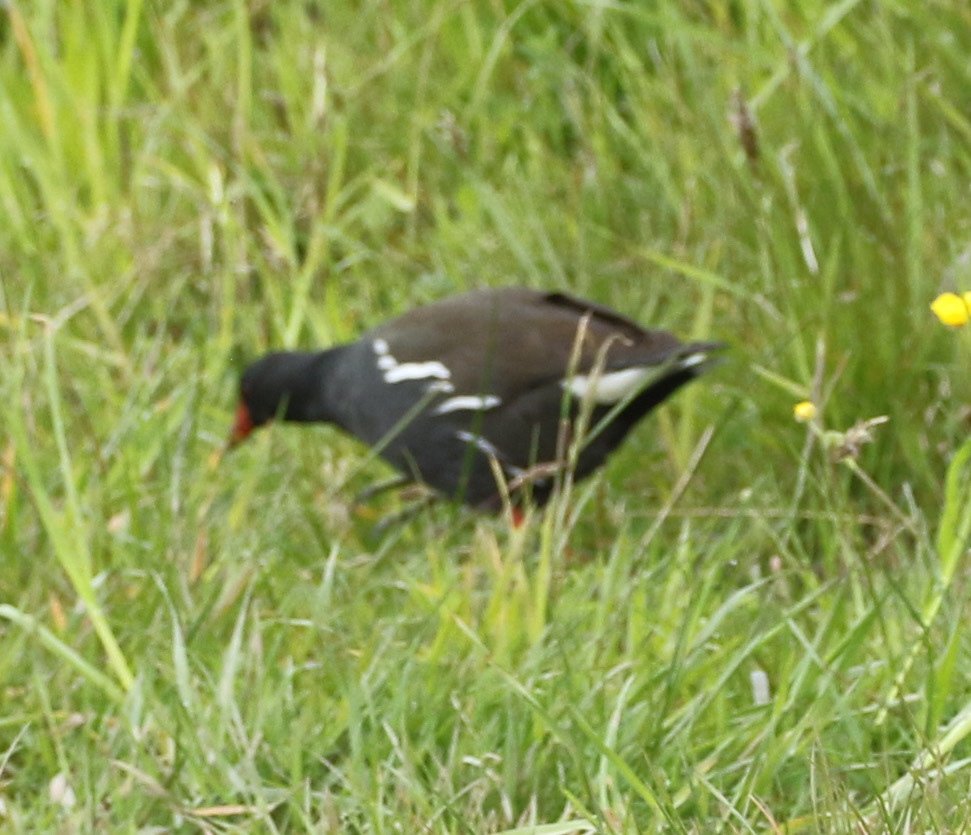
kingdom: Animalia
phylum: Chordata
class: Aves
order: Gruiformes
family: Rallidae
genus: Gallinula
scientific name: Gallinula chloropus
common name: Common moorhen
